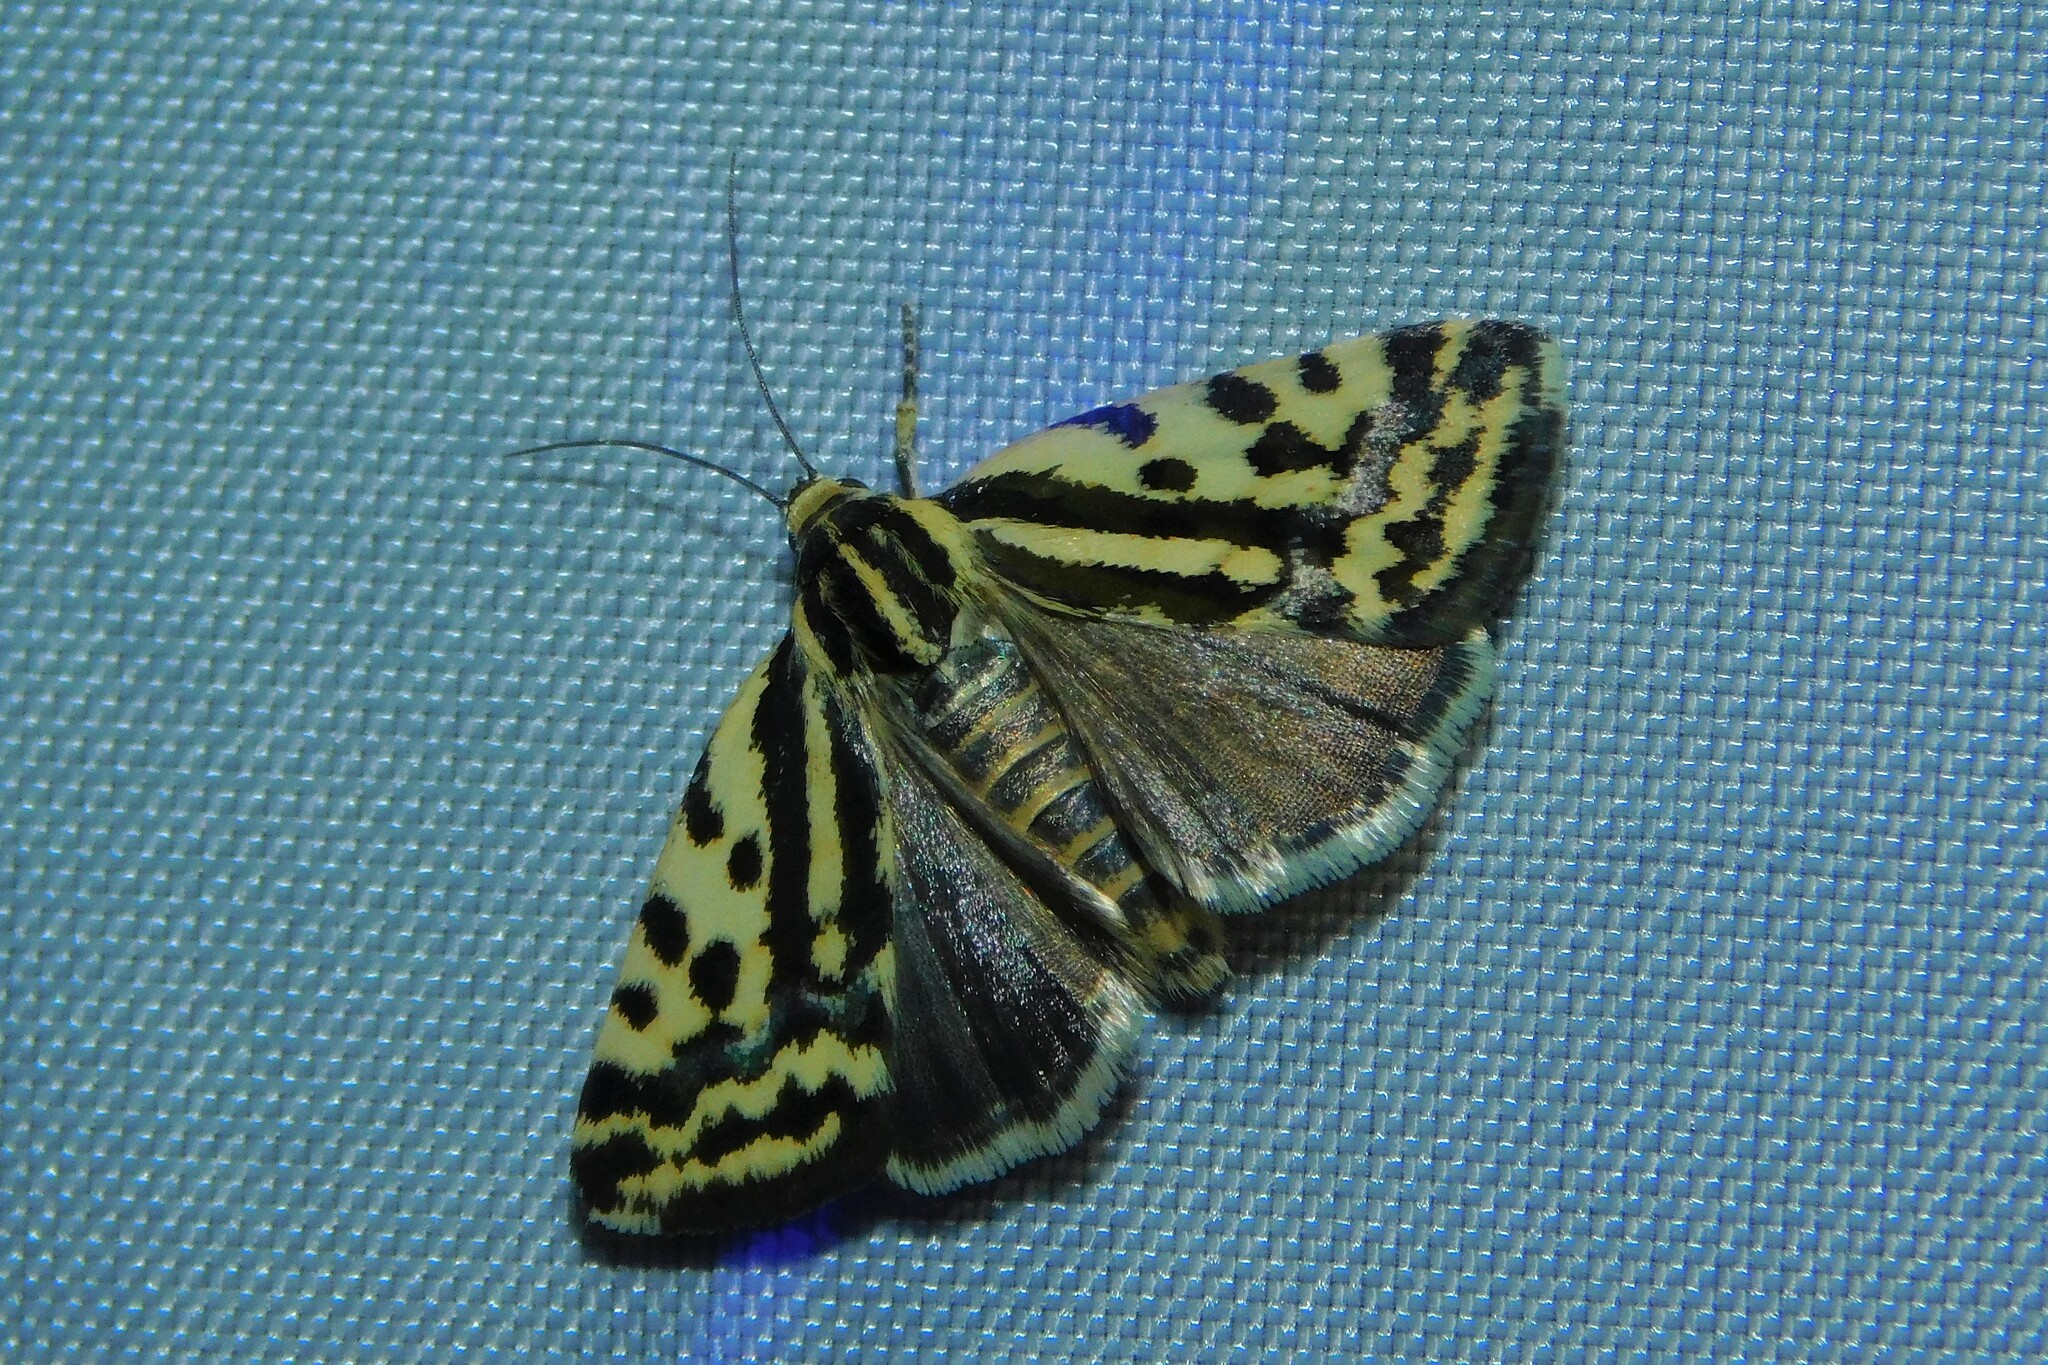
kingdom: Animalia
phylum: Arthropoda
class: Insecta
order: Lepidoptera
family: Noctuidae
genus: Acontia
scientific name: Acontia trabealis
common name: Spotted sulphur
